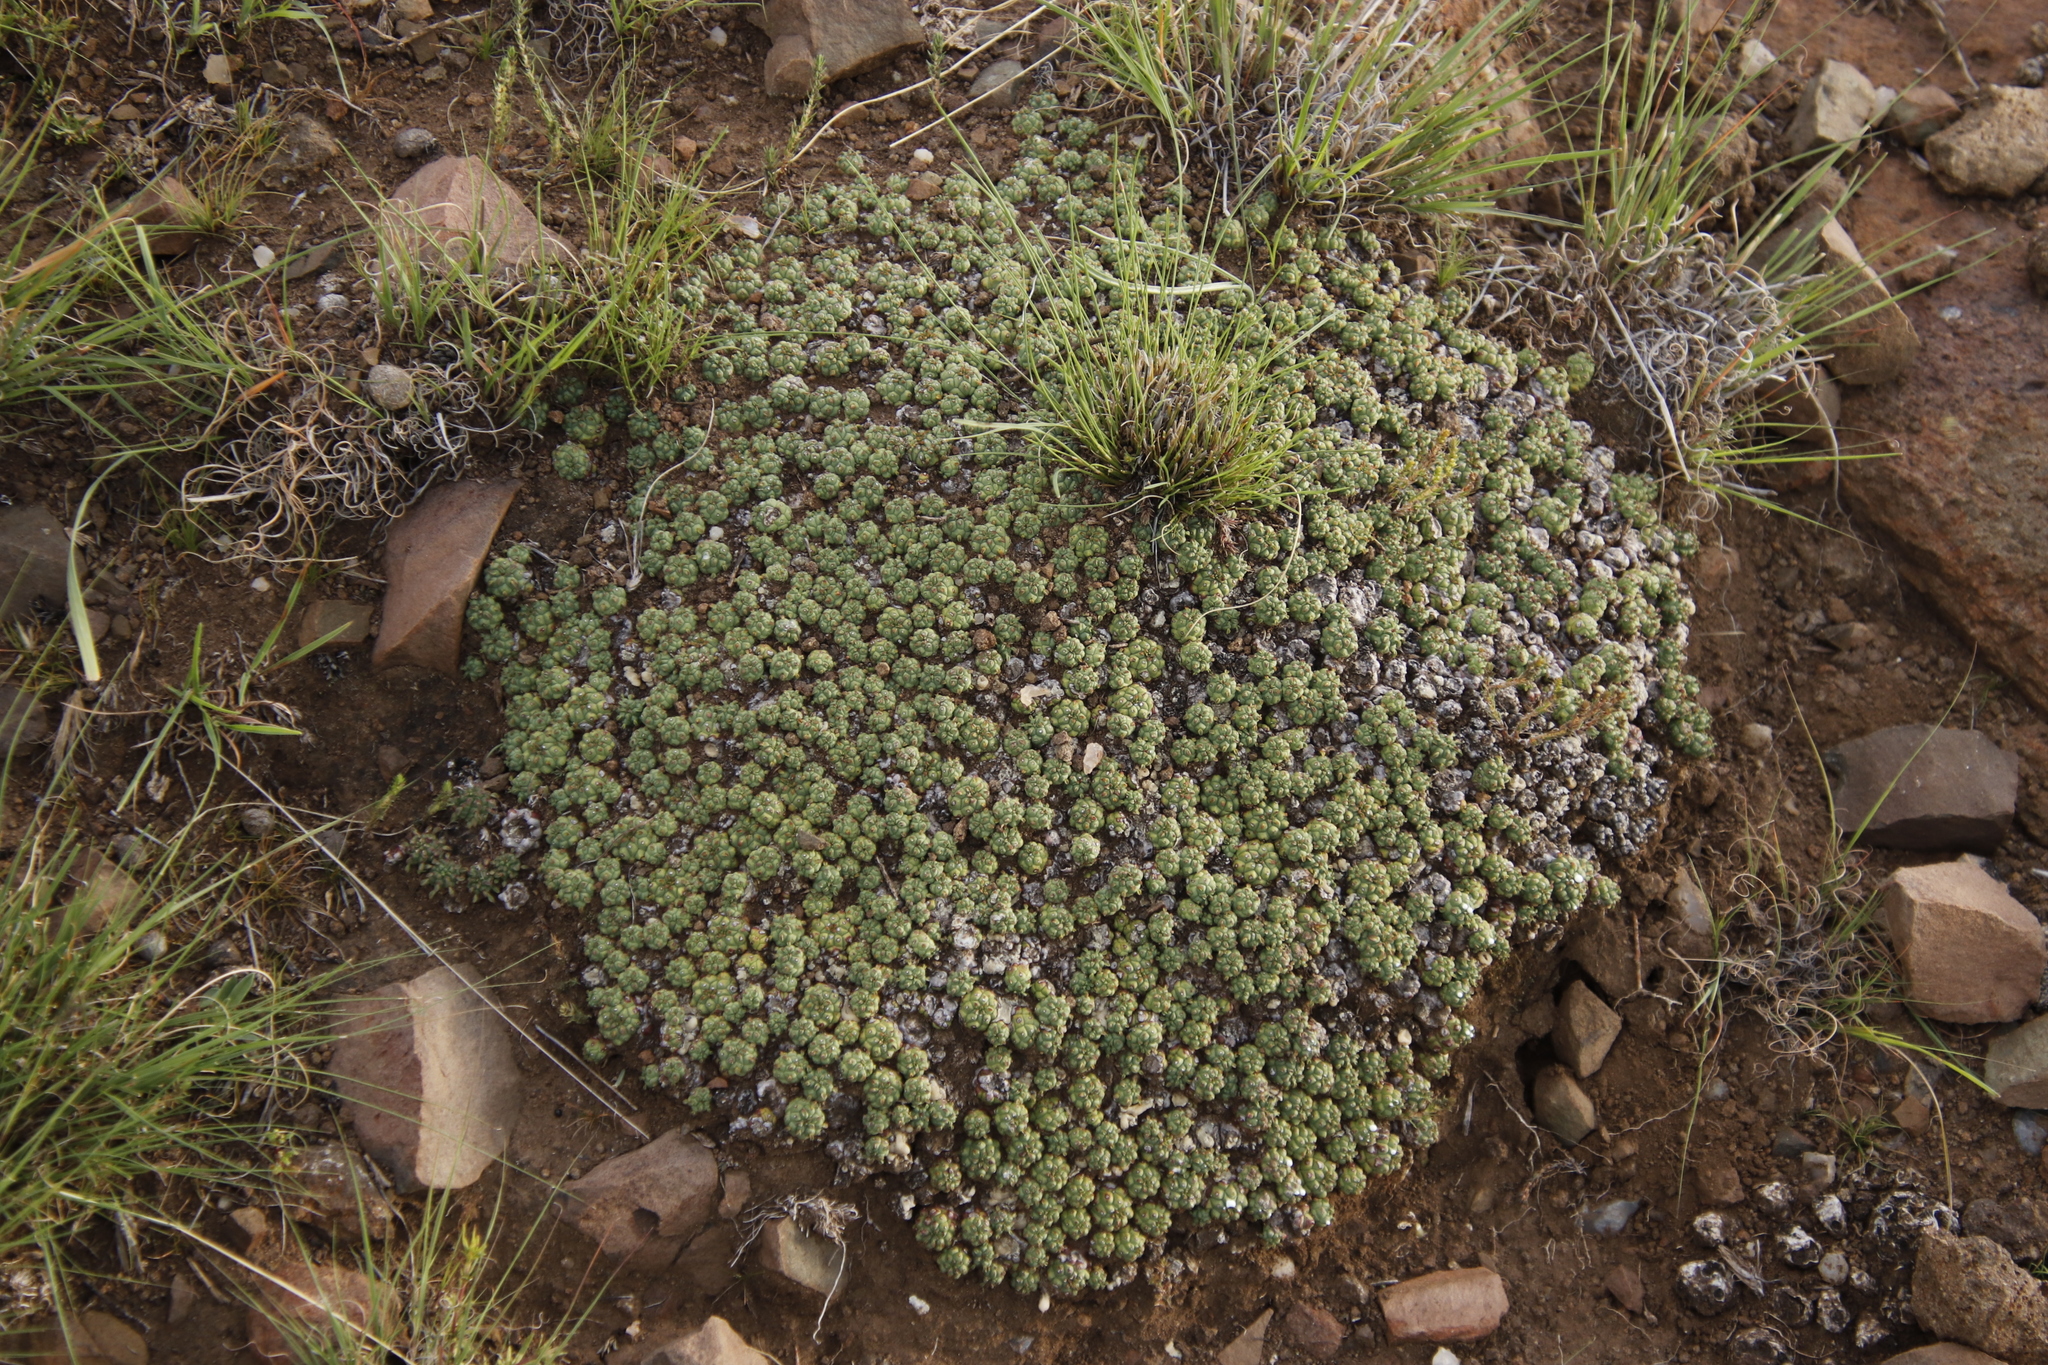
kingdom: Plantae
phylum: Tracheophyta
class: Magnoliopsida
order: Malpighiales
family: Euphorbiaceae
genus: Euphorbia
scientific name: Euphorbia clavarioides
